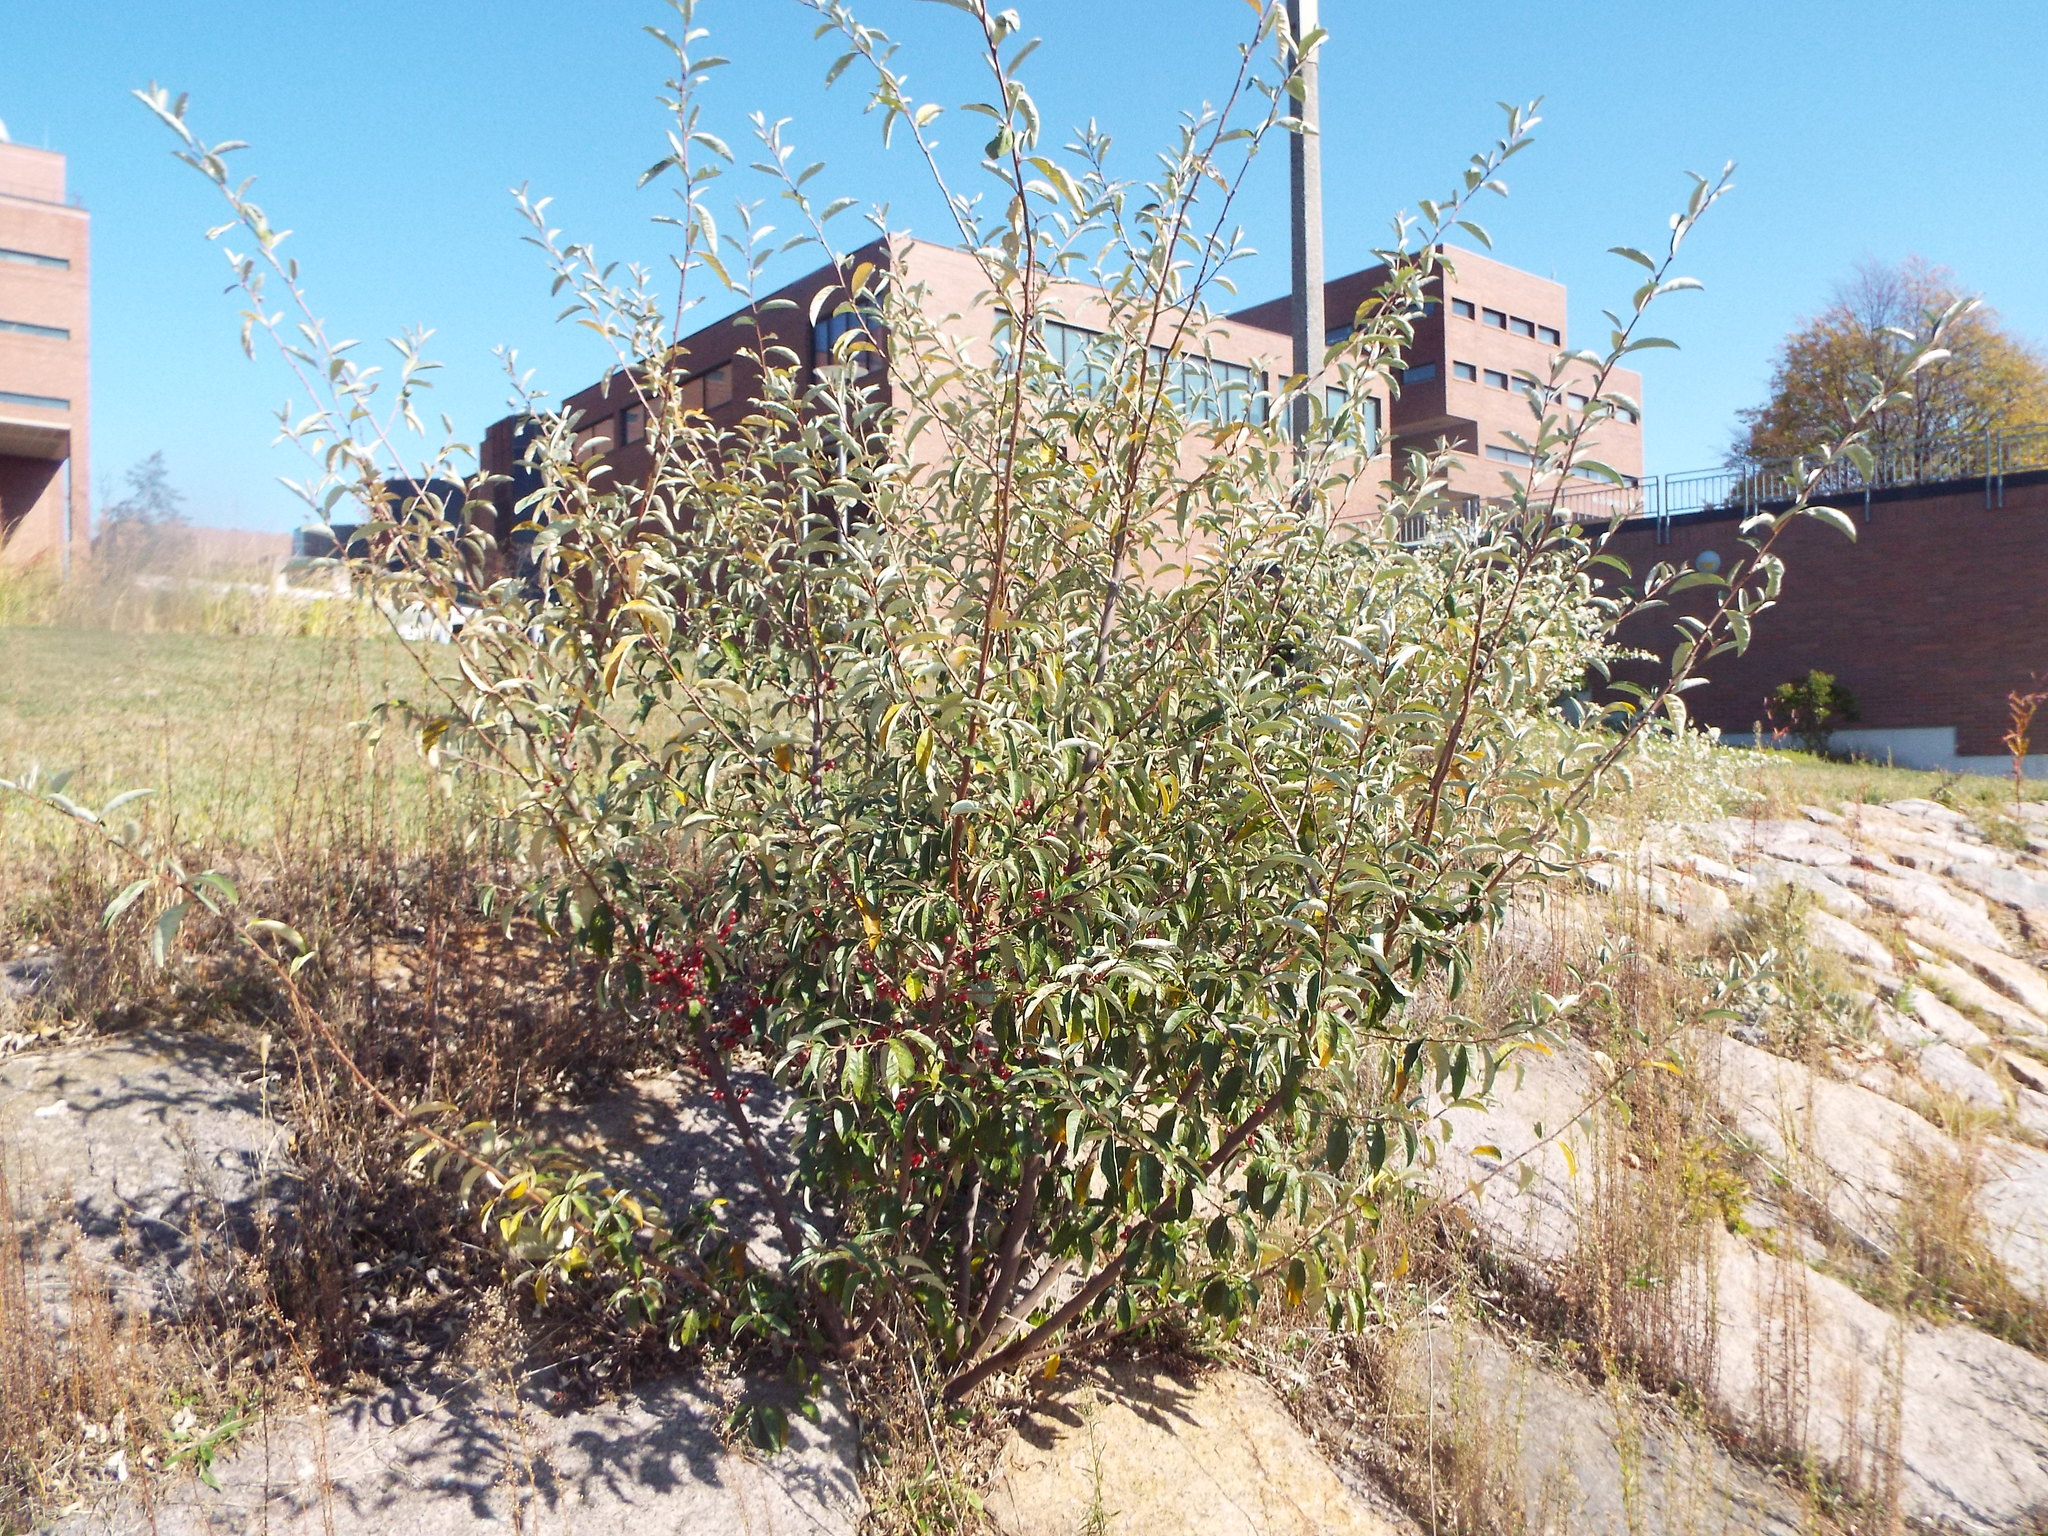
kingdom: Plantae
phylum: Tracheophyta
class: Magnoliopsida
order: Rosales
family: Elaeagnaceae
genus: Elaeagnus
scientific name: Elaeagnus umbellata
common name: Autumn olive
